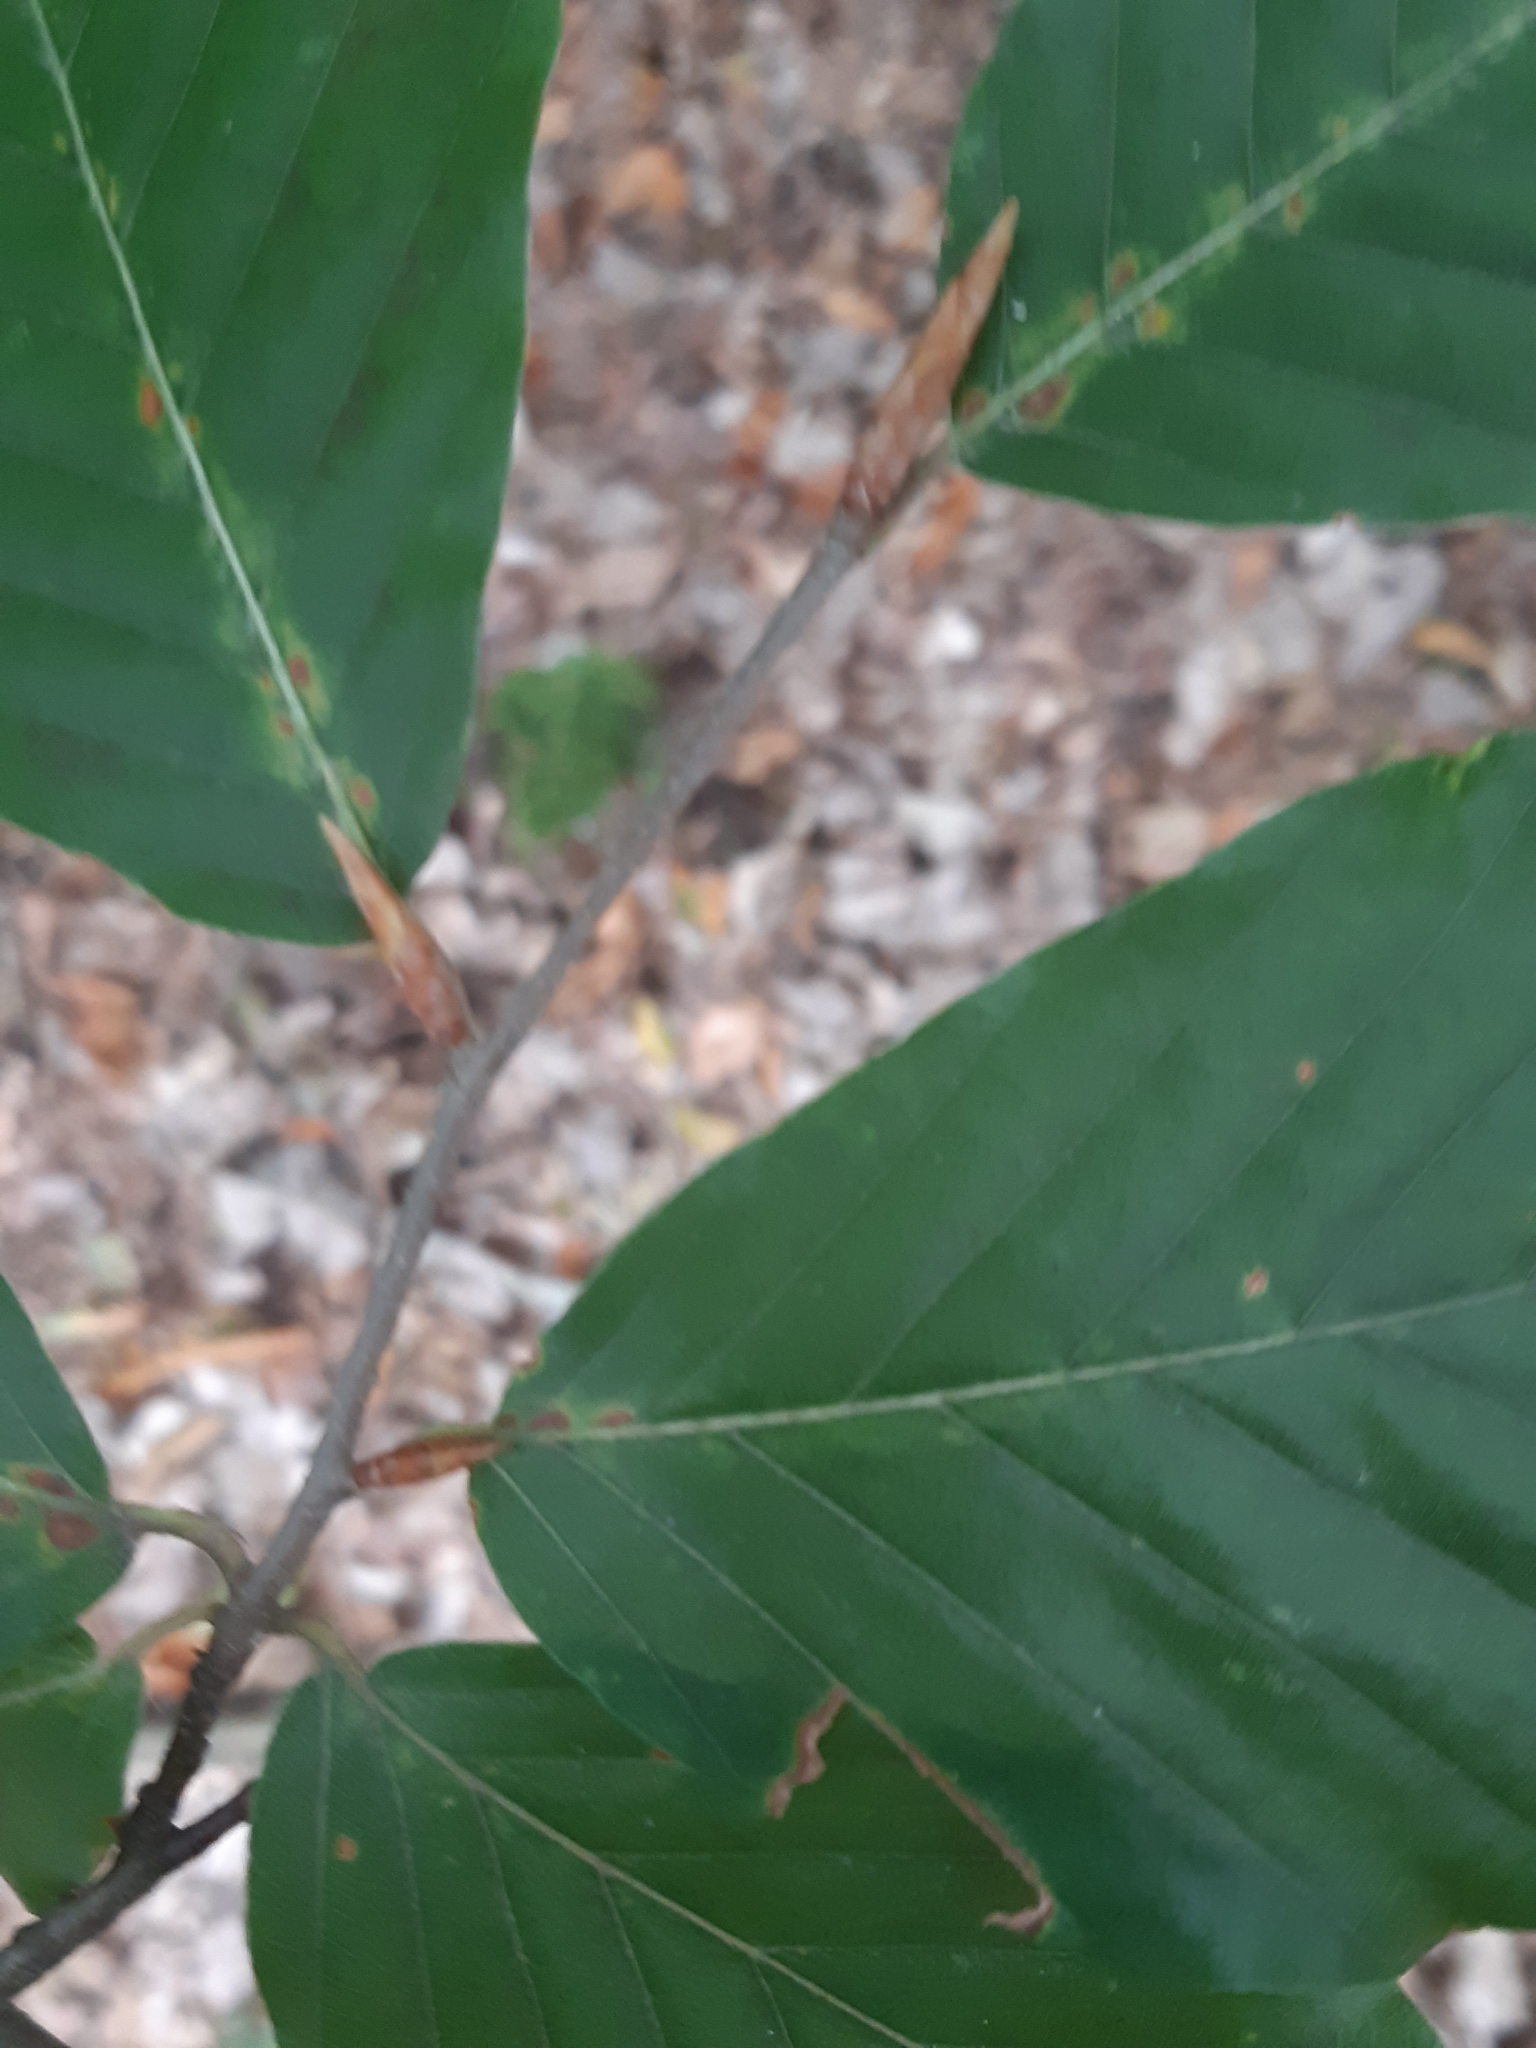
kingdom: Plantae
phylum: Tracheophyta
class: Magnoliopsida
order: Fagales
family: Fagaceae
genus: Fagus
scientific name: Fagus sylvatica
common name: Beech
